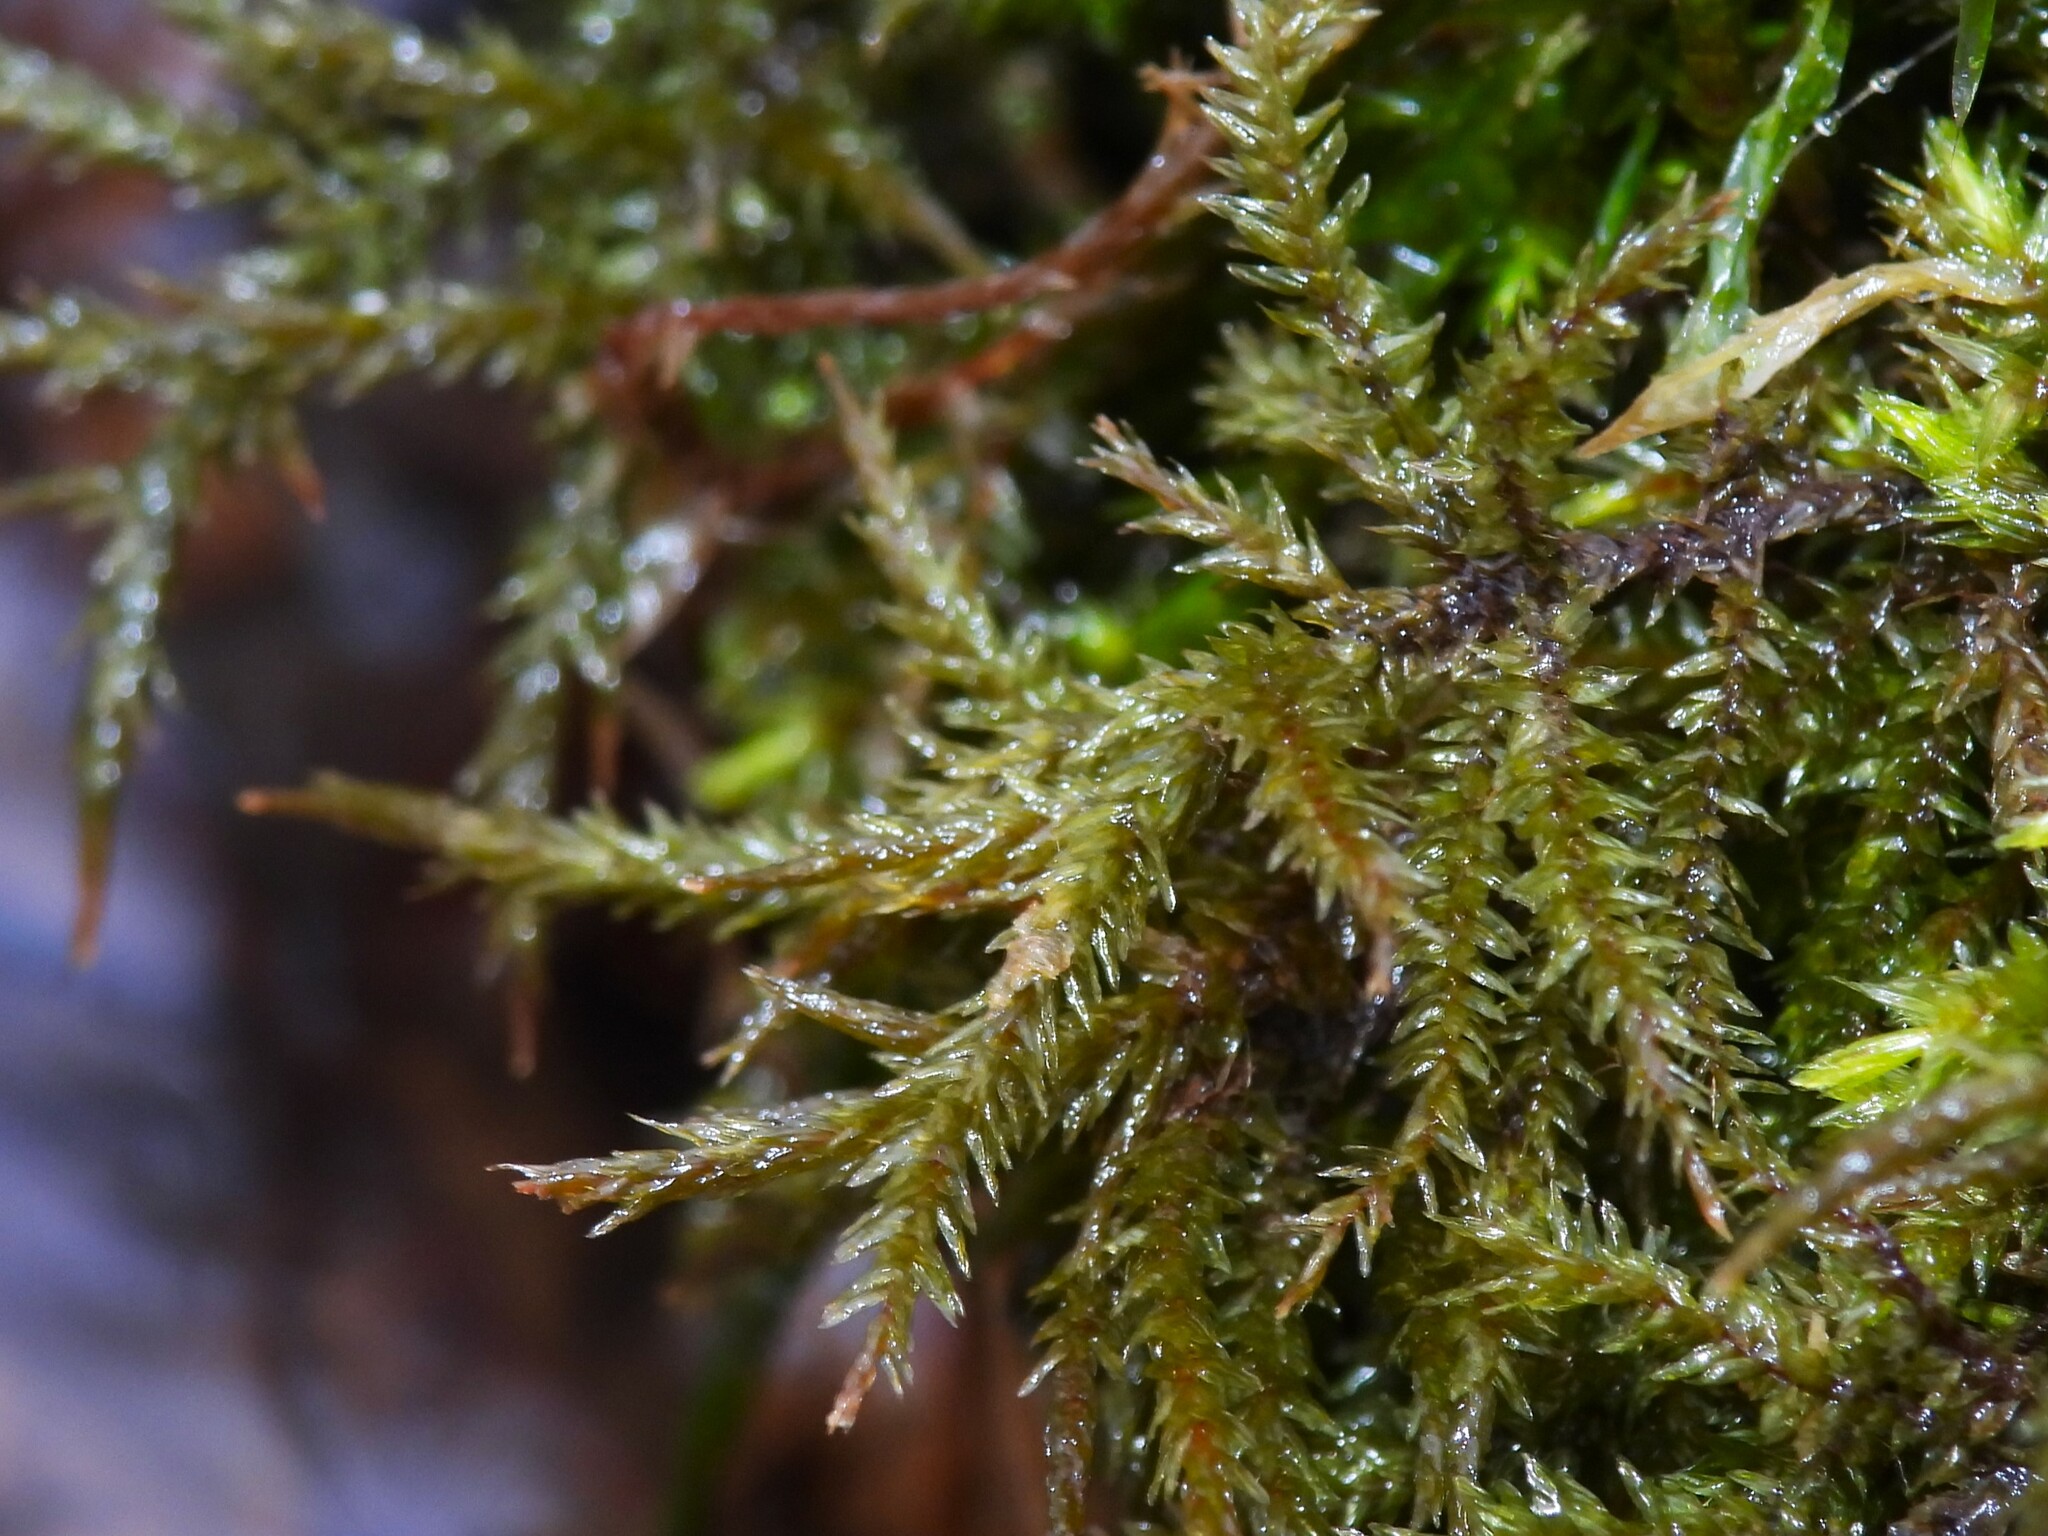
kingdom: Plantae
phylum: Bryophyta
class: Bryopsida
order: Hypnales
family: Climaciaceae
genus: Climacium
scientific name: Climacium americanum
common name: American tree moss
